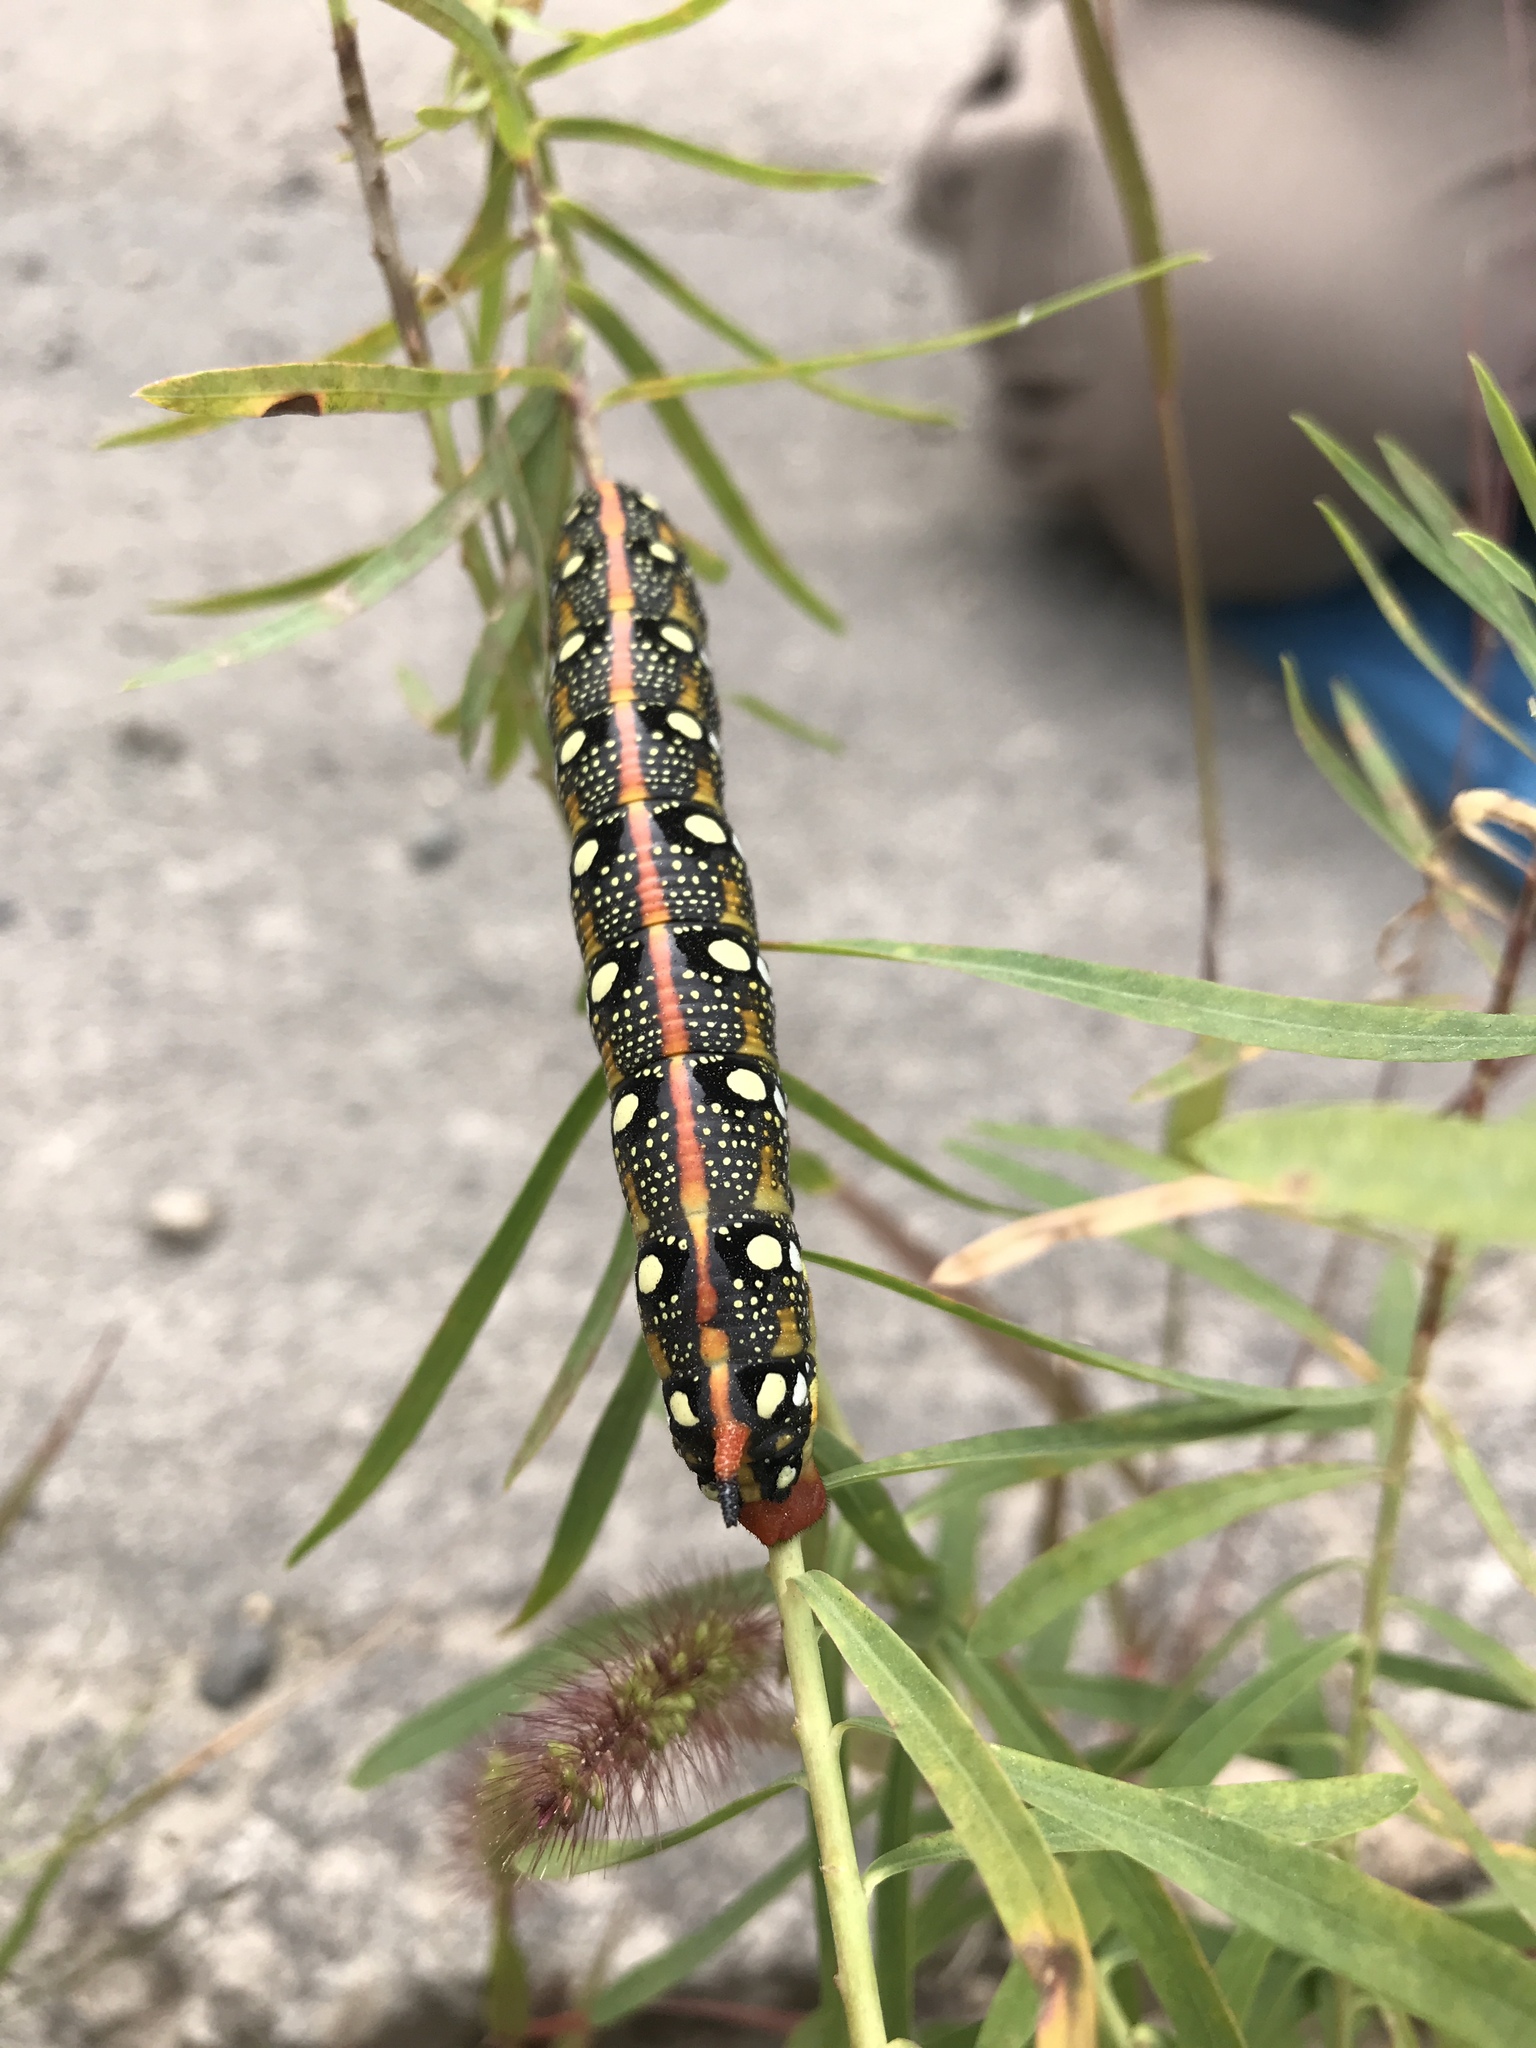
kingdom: Animalia
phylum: Arthropoda
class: Insecta
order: Lepidoptera
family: Sphingidae
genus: Hyles
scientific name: Hyles euphorbiae
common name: Spurge hawk-moth
